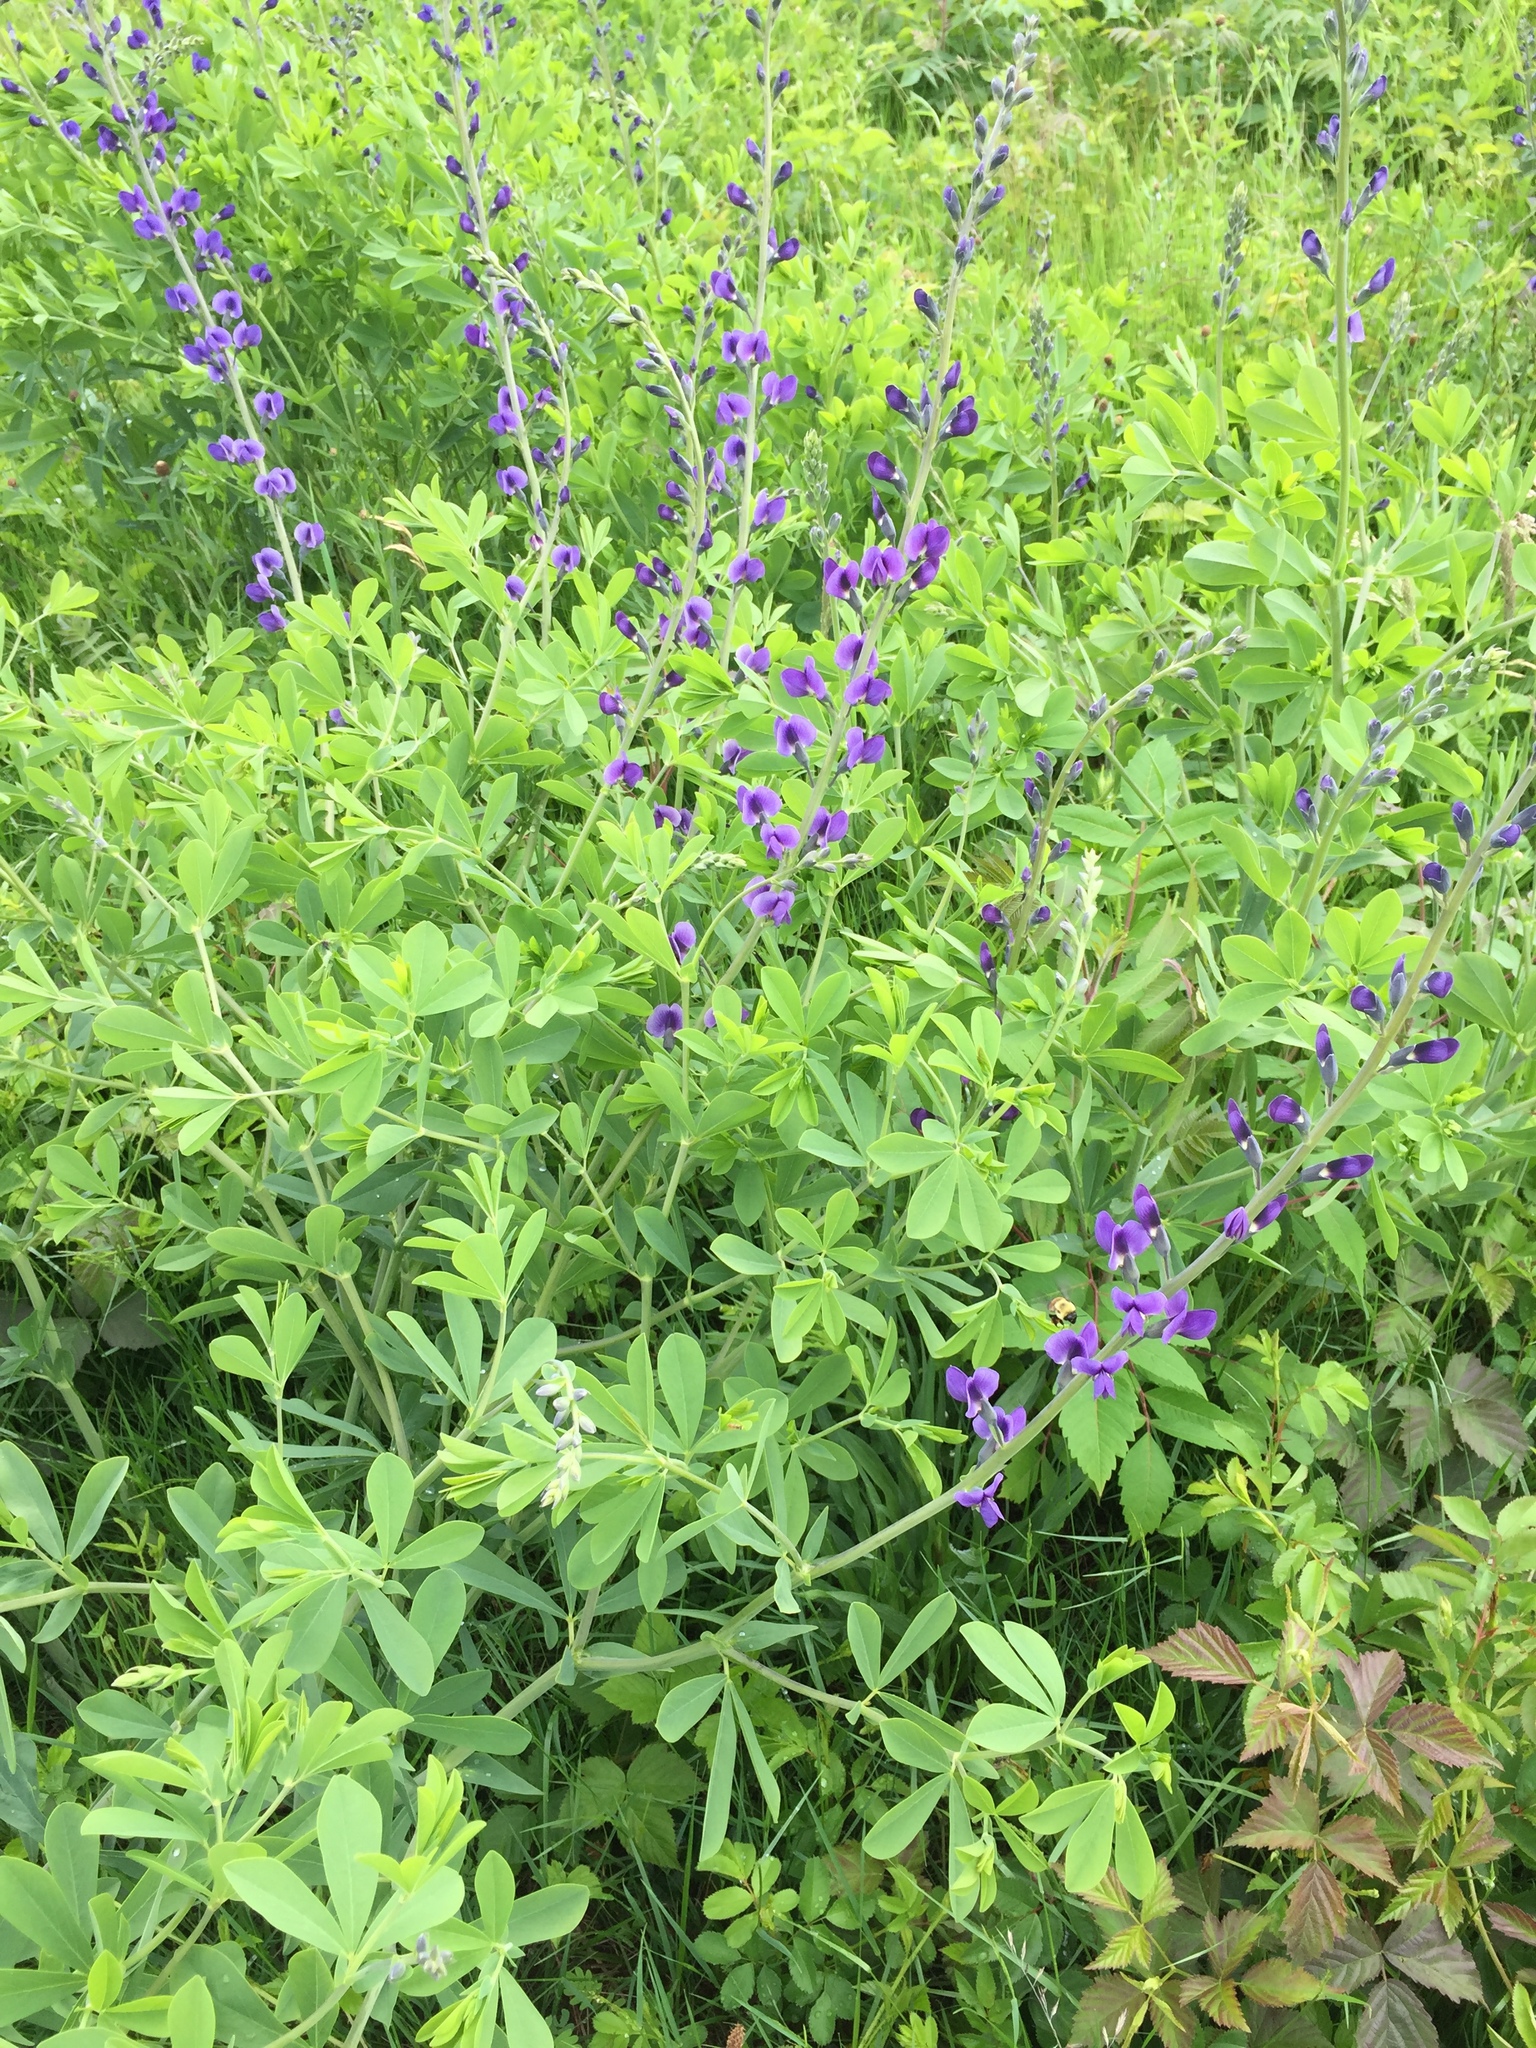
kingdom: Plantae
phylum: Tracheophyta
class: Magnoliopsida
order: Fabales
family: Fabaceae
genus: Baptisia
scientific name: Baptisia australis
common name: Blue false indigo
